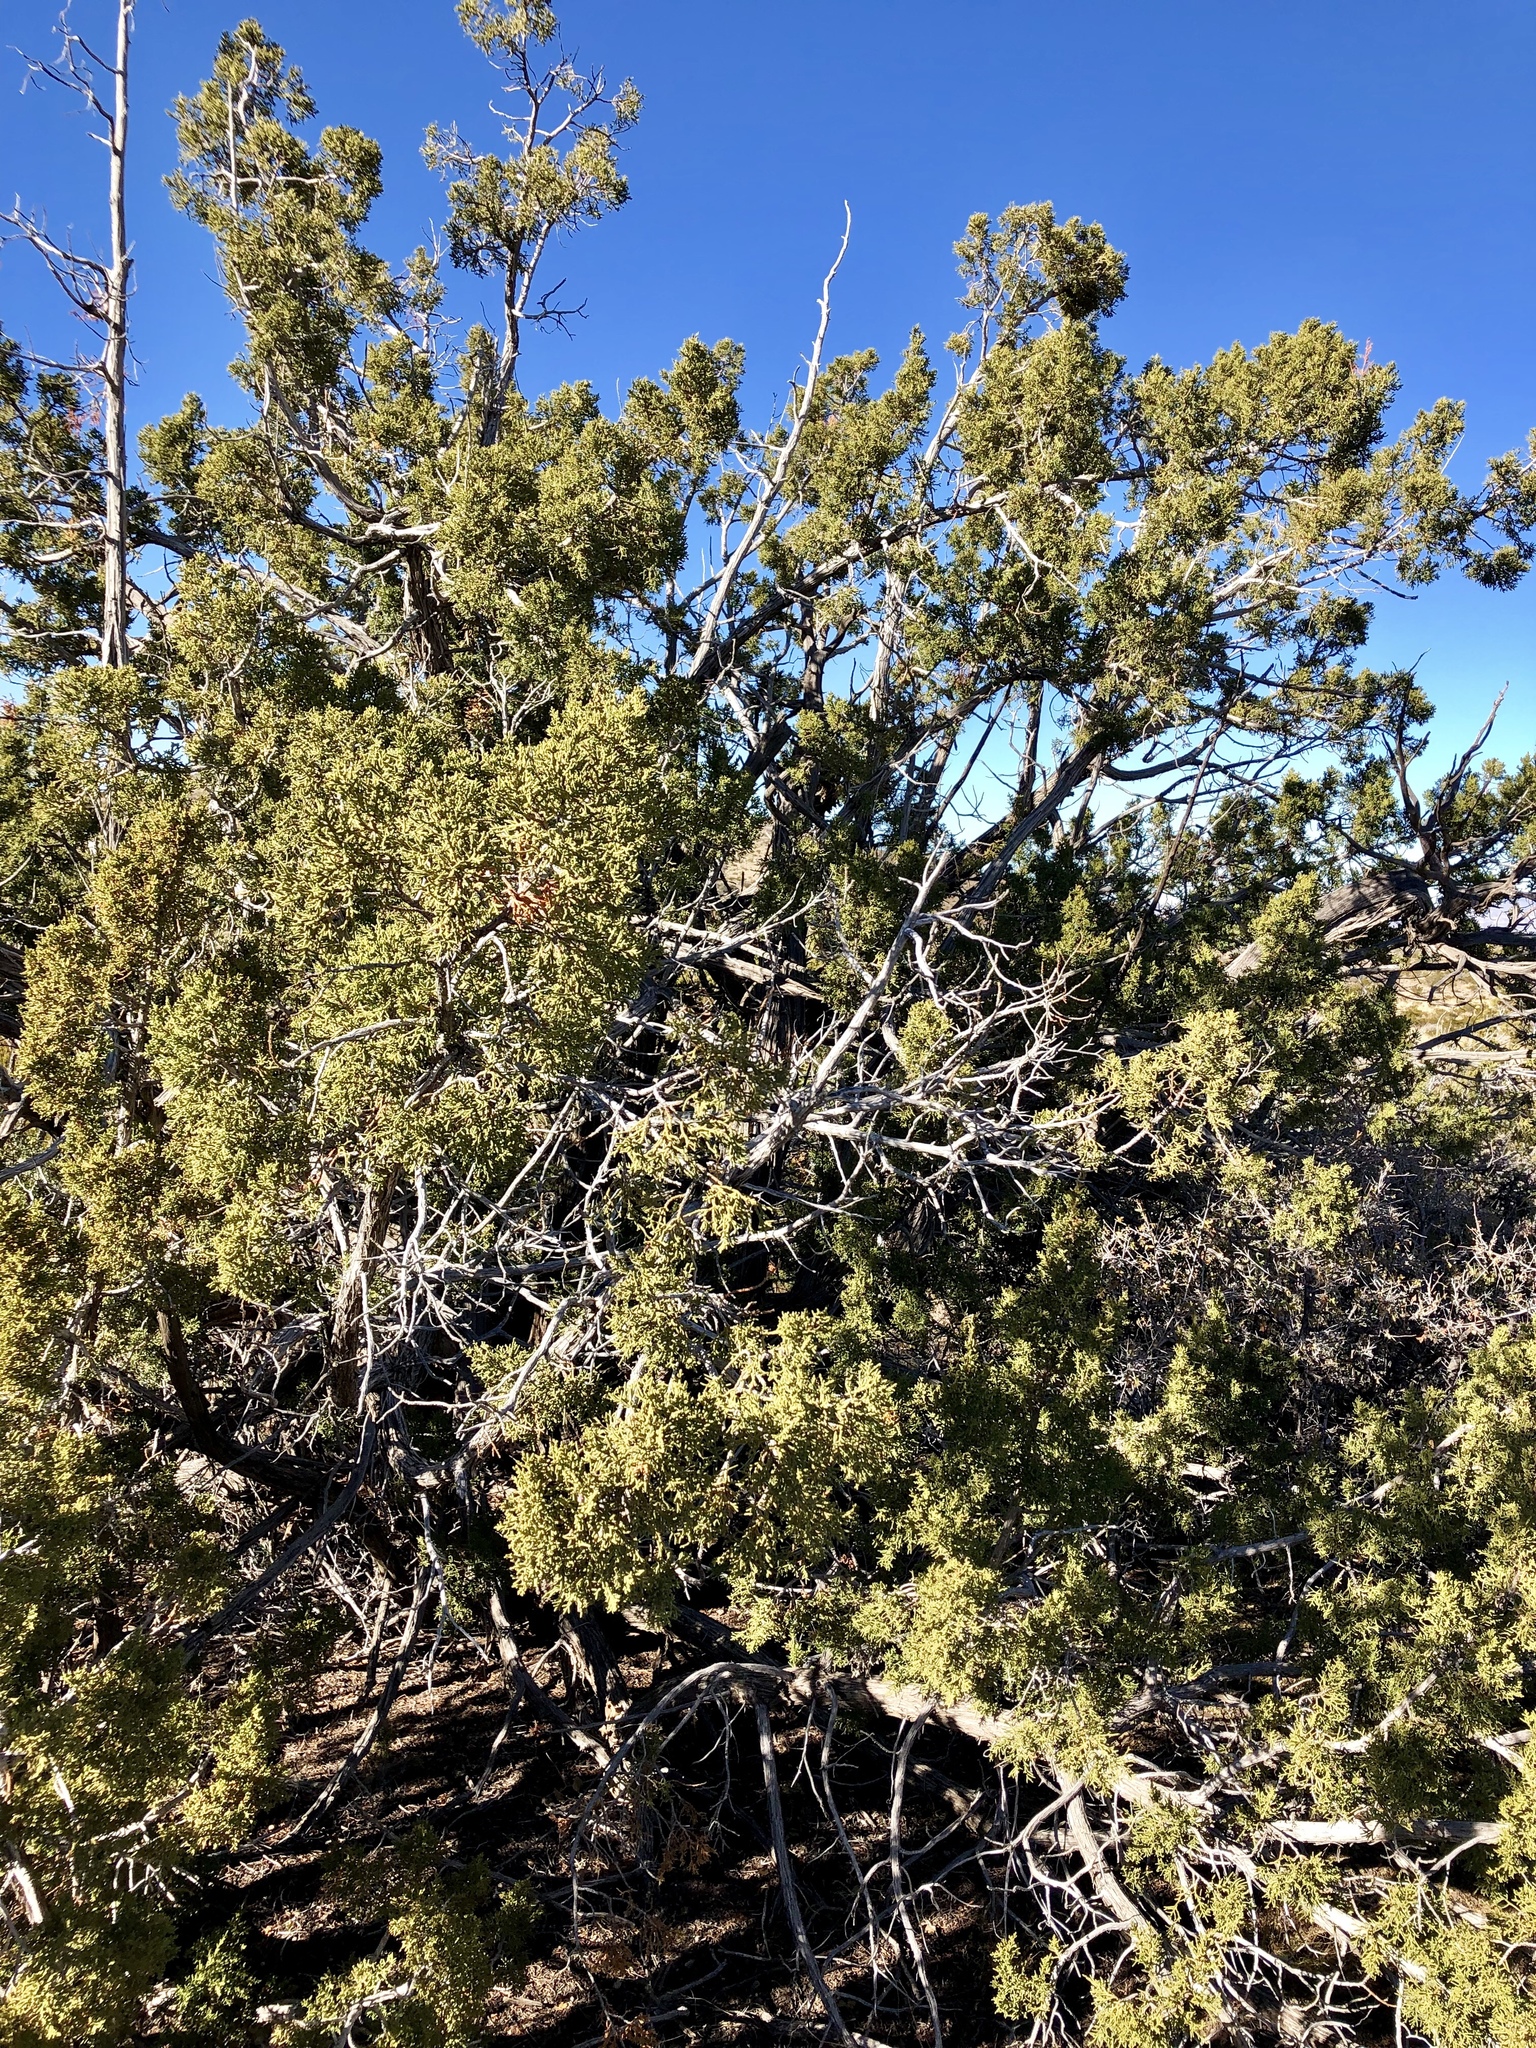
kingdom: Plantae
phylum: Tracheophyta
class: Pinopsida
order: Pinales
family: Cupressaceae
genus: Juniperus
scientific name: Juniperus monosperma
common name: One-seed juniper
